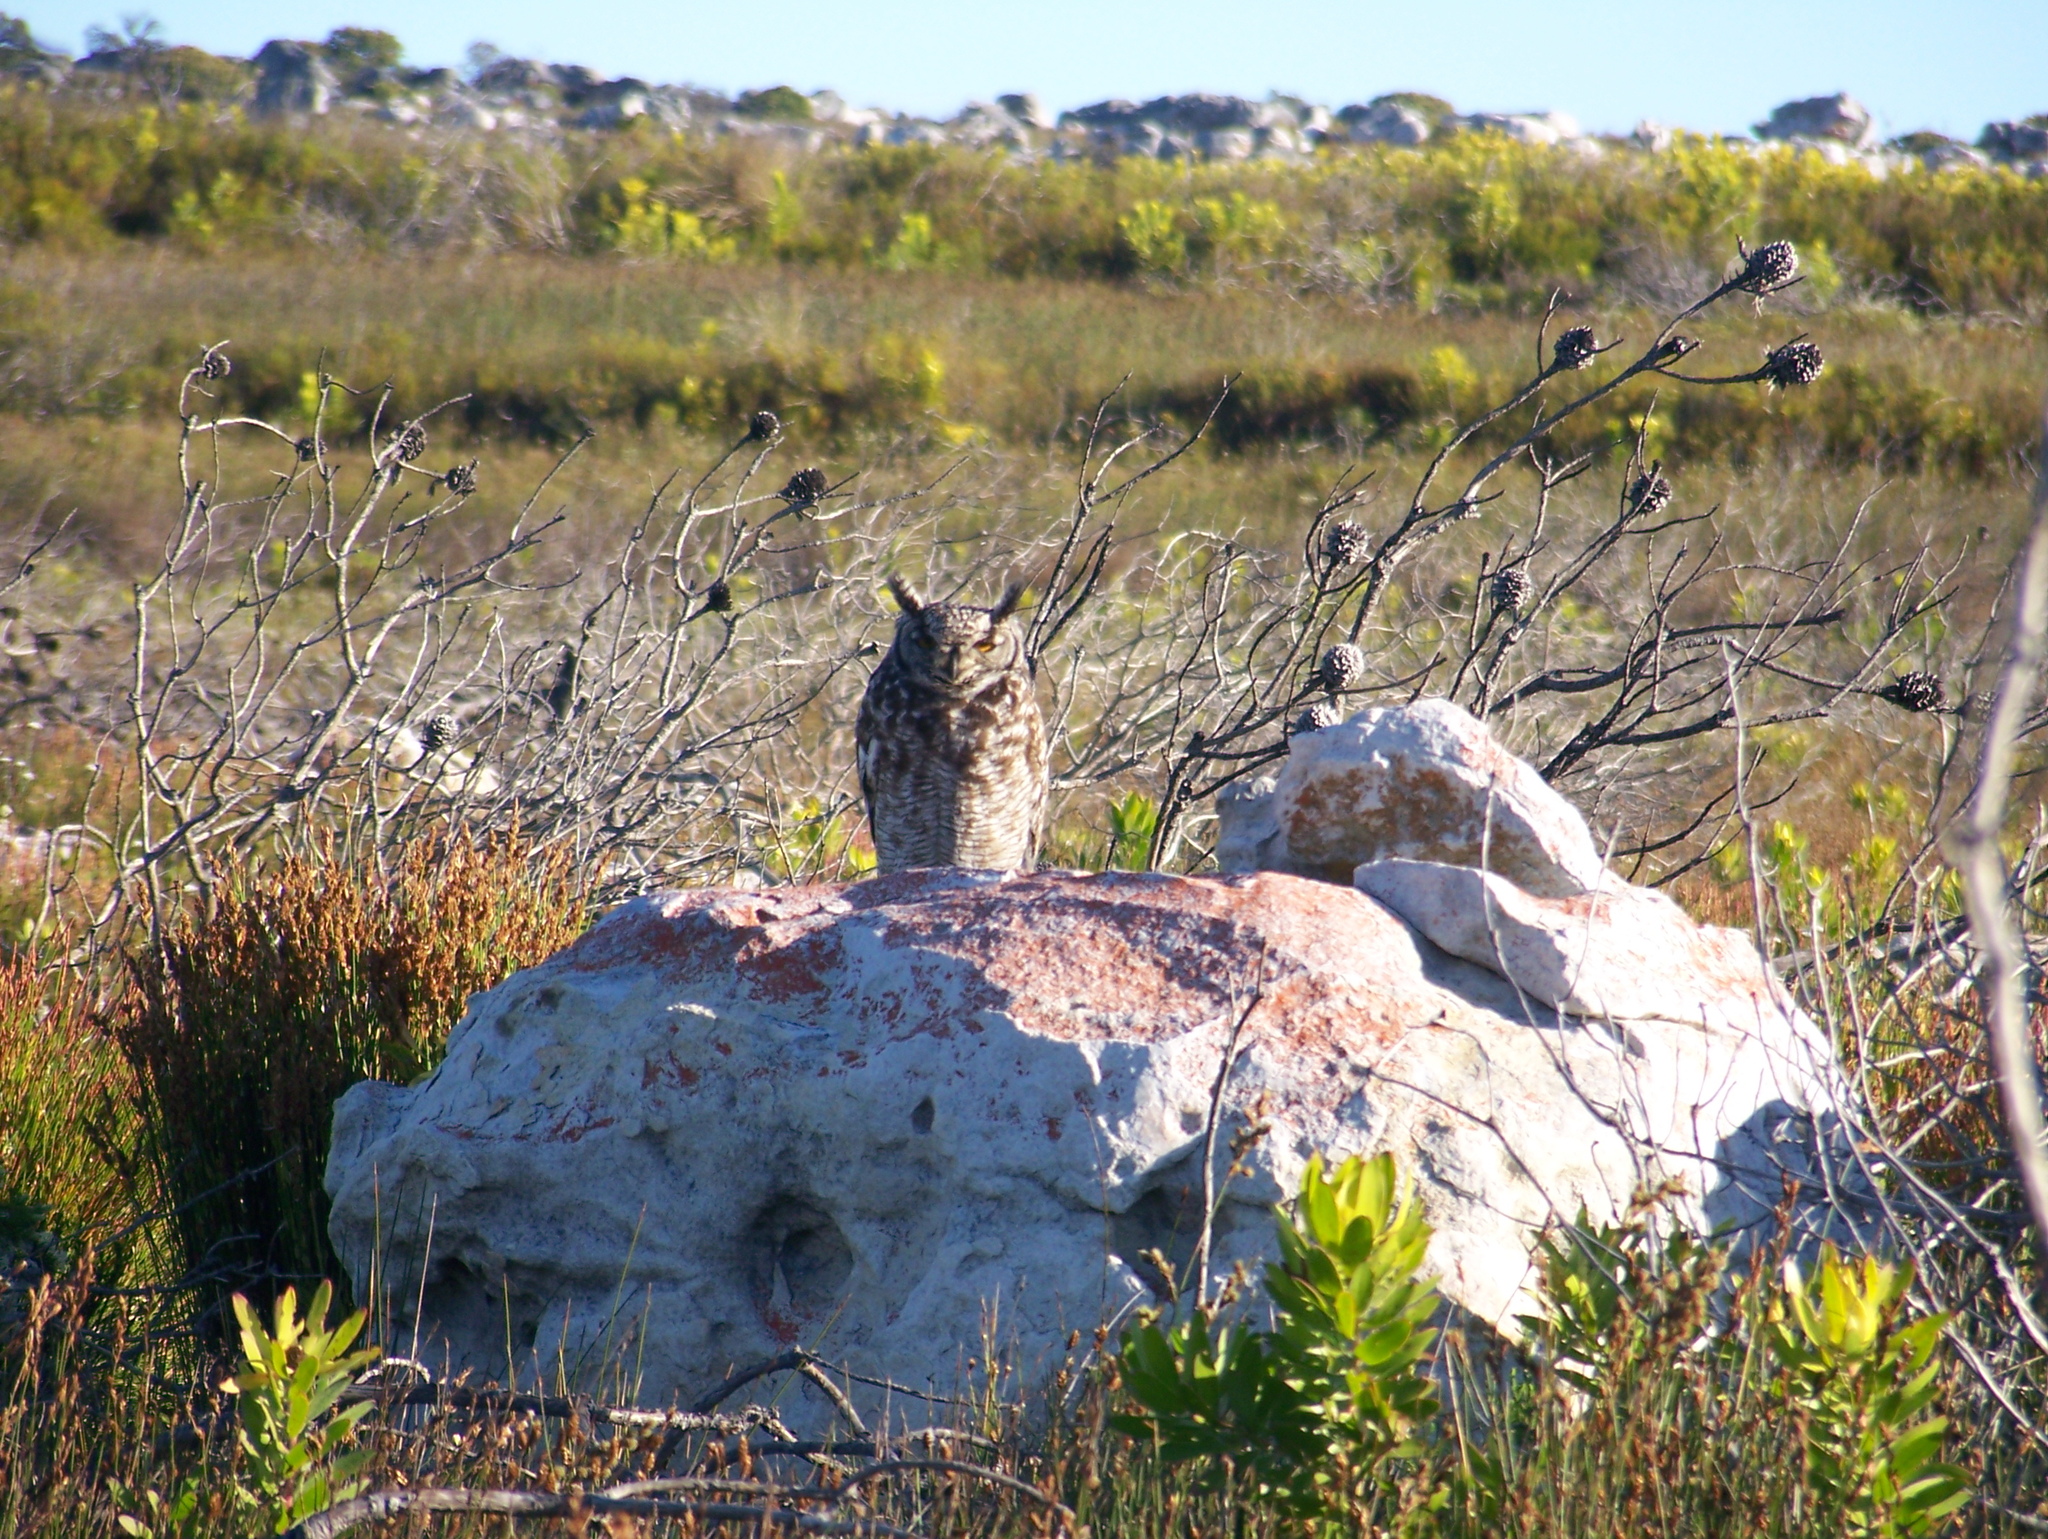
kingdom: Animalia
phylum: Chordata
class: Aves
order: Strigiformes
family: Strigidae
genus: Bubo
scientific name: Bubo africanus
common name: Spotted eagle-owl
